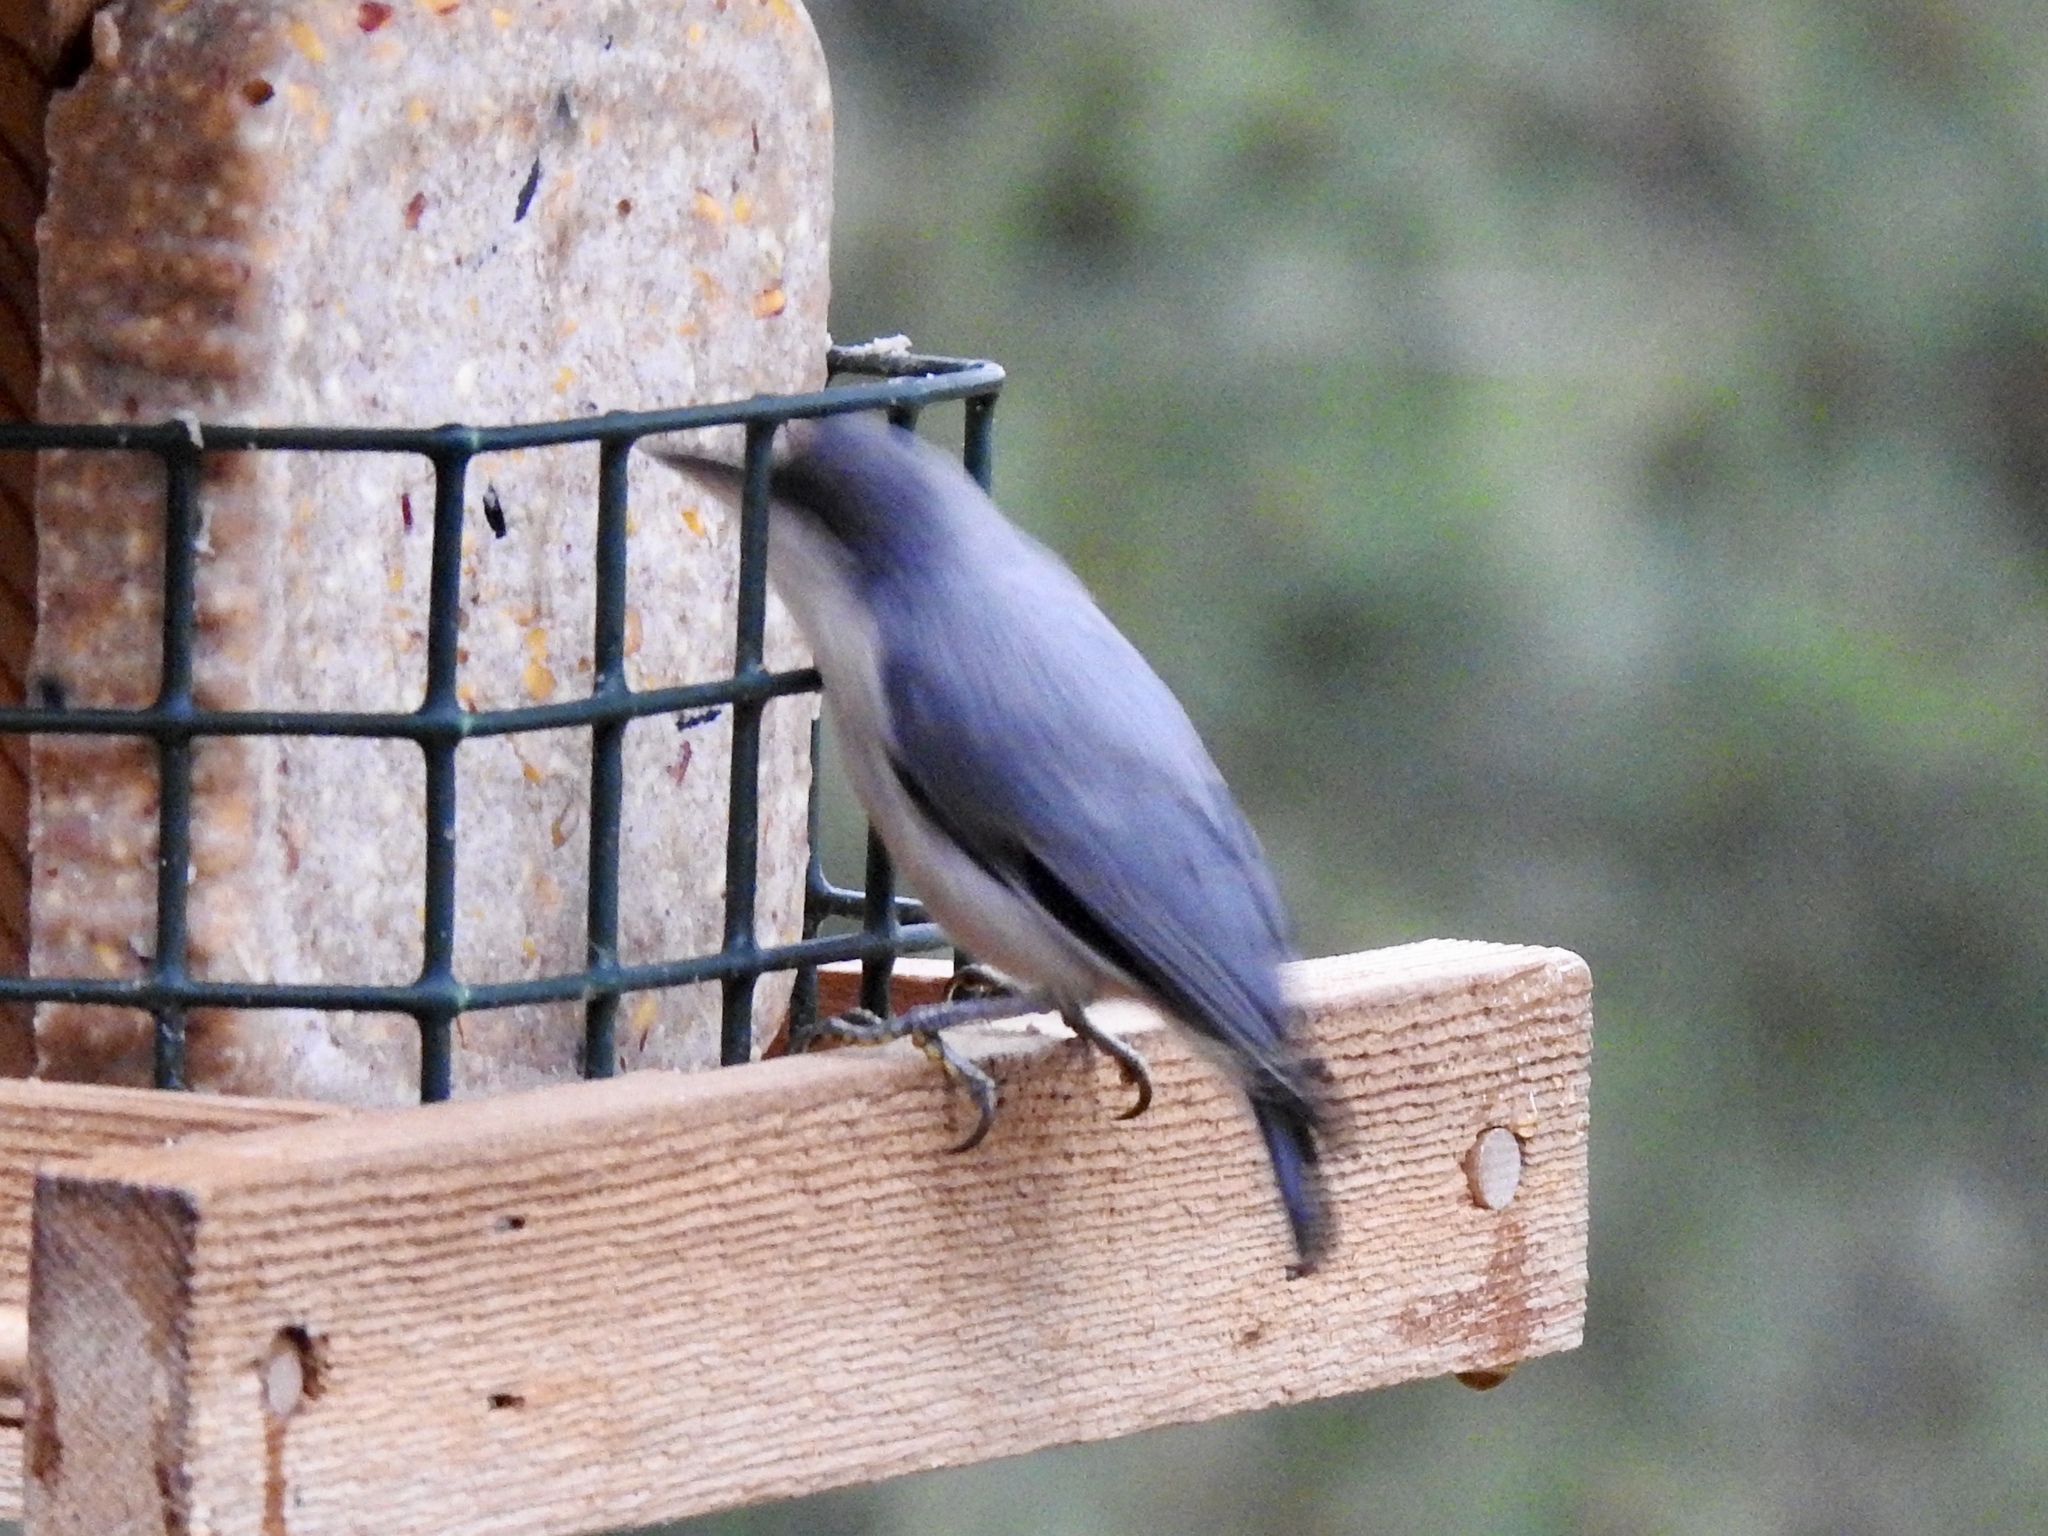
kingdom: Animalia
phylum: Chordata
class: Aves
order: Passeriformes
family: Sittidae
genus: Sitta
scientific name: Sitta pygmaea
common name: Pygmy nuthatch
